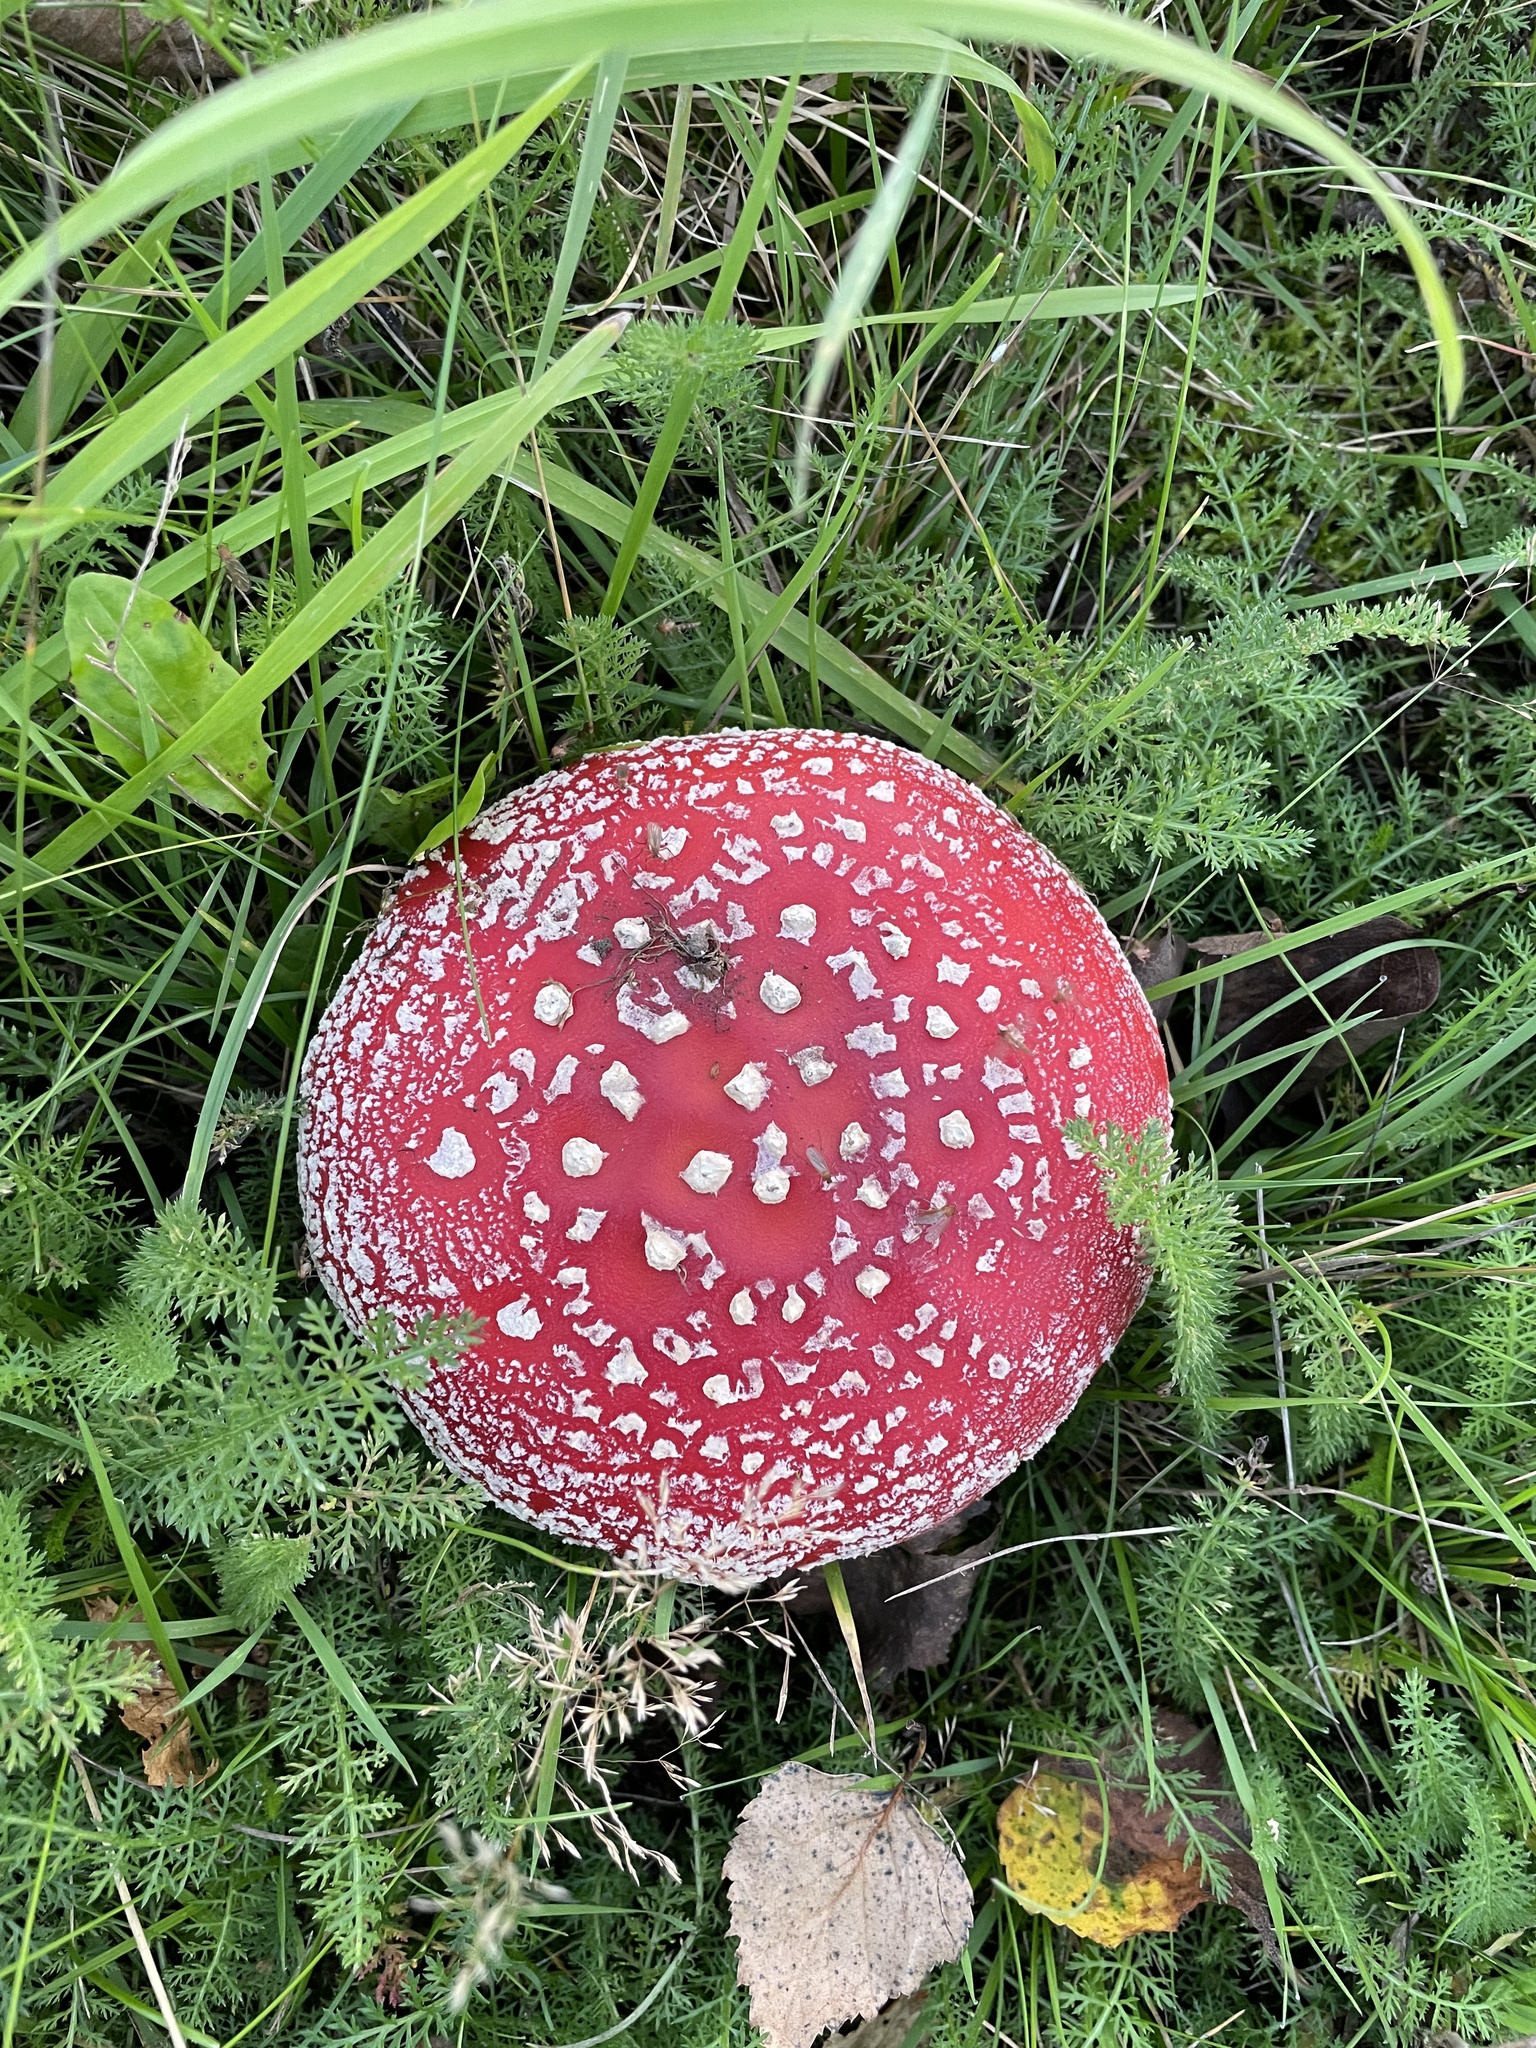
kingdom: Fungi
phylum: Basidiomycota
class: Agaricomycetes
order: Agaricales
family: Amanitaceae
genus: Amanita
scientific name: Amanita muscaria
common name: Fly agaric
